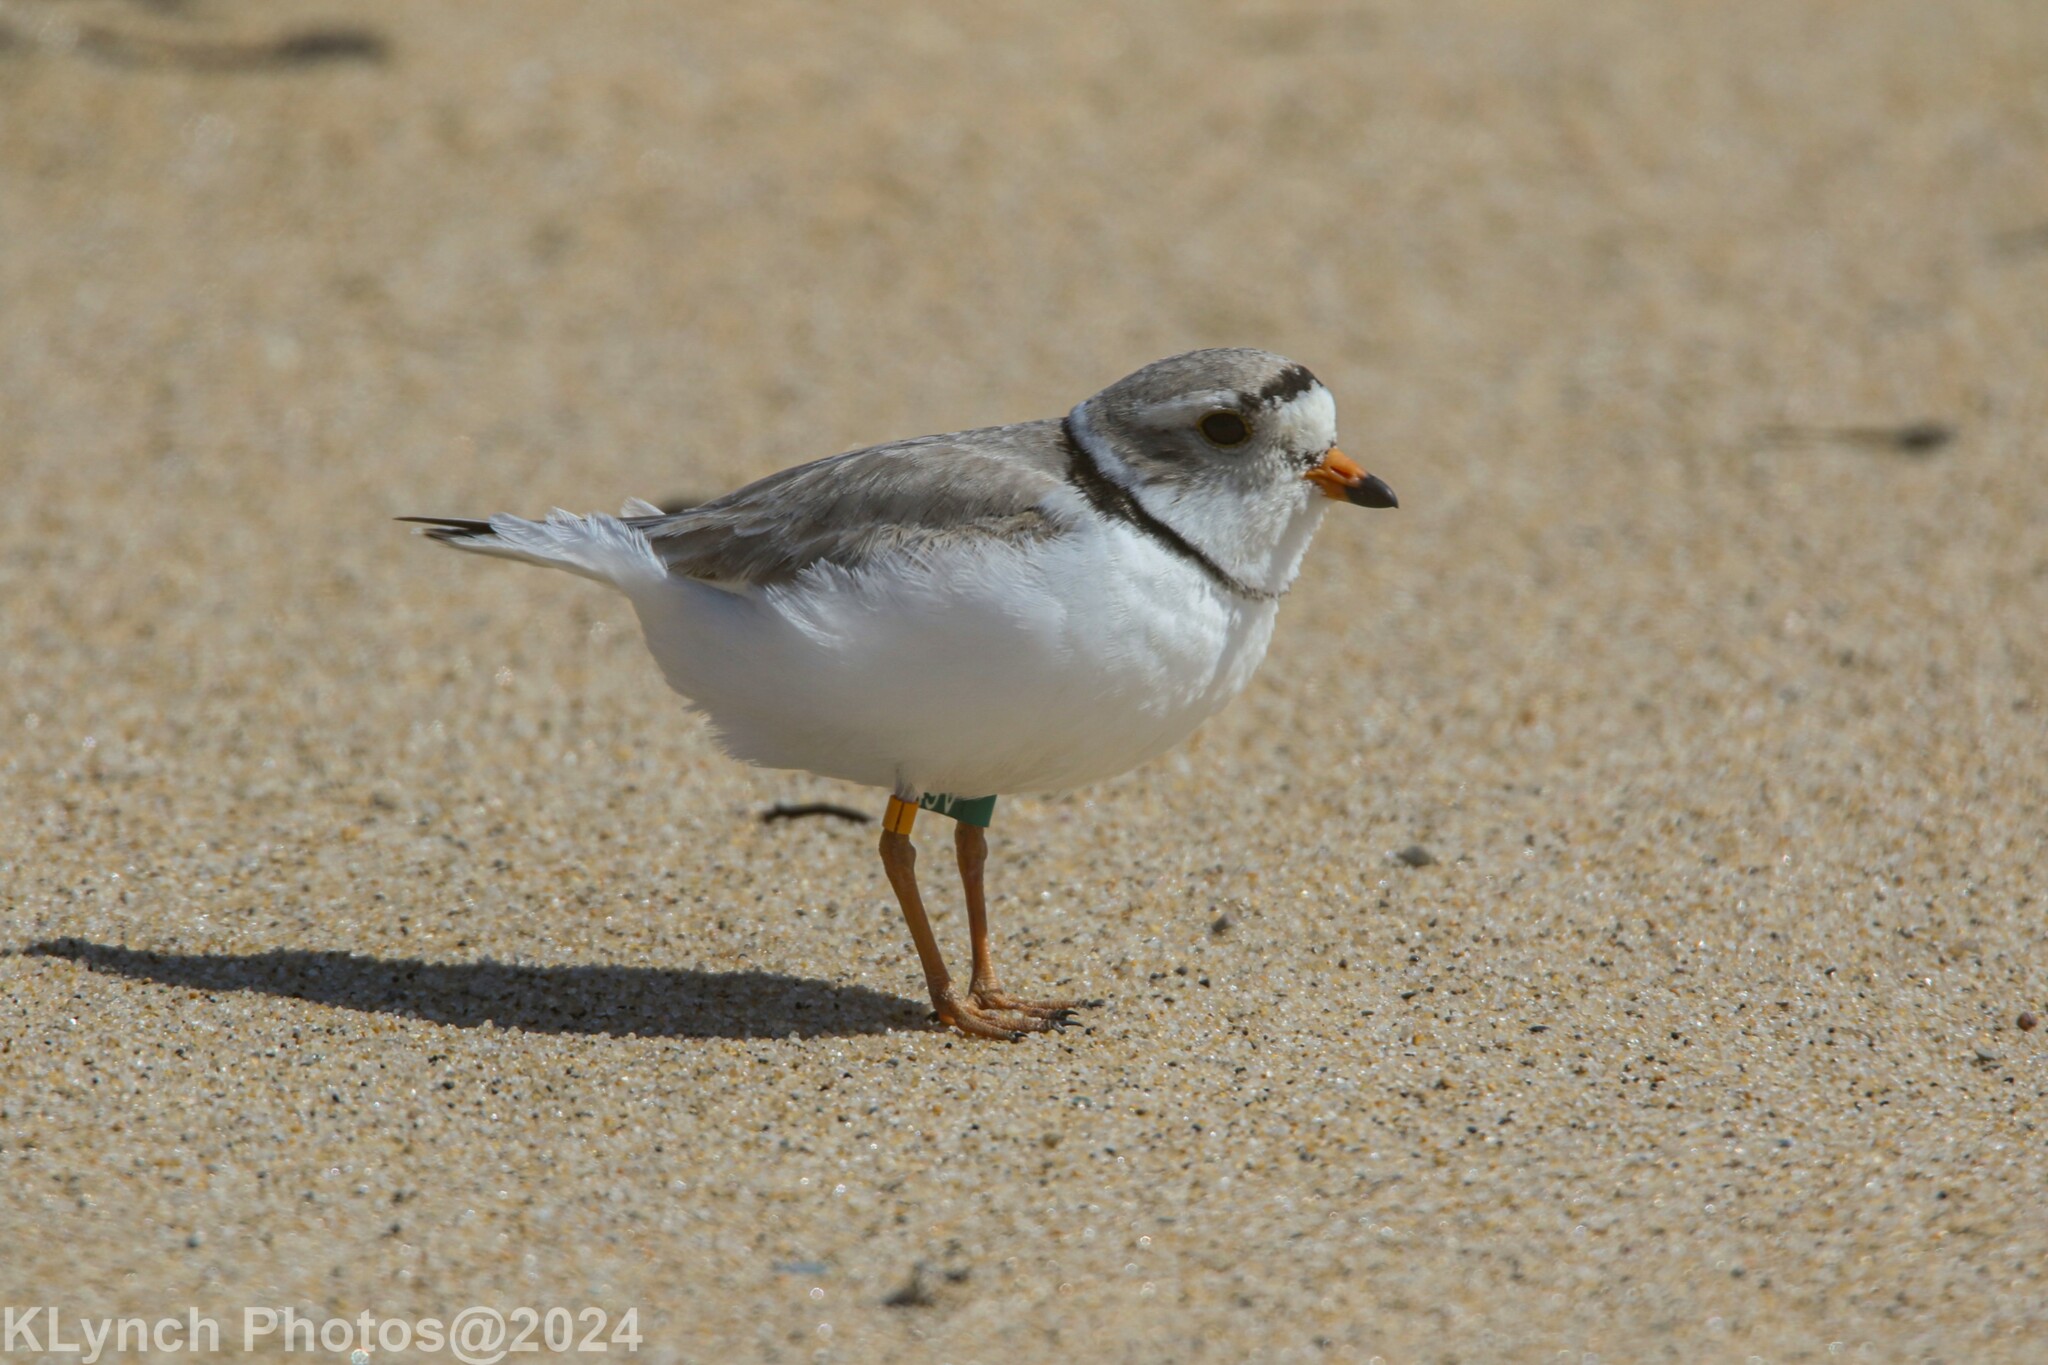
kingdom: Animalia
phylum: Chordata
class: Aves
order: Charadriiformes
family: Charadriidae
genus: Charadrius
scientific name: Charadrius melodus
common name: Piping plover
